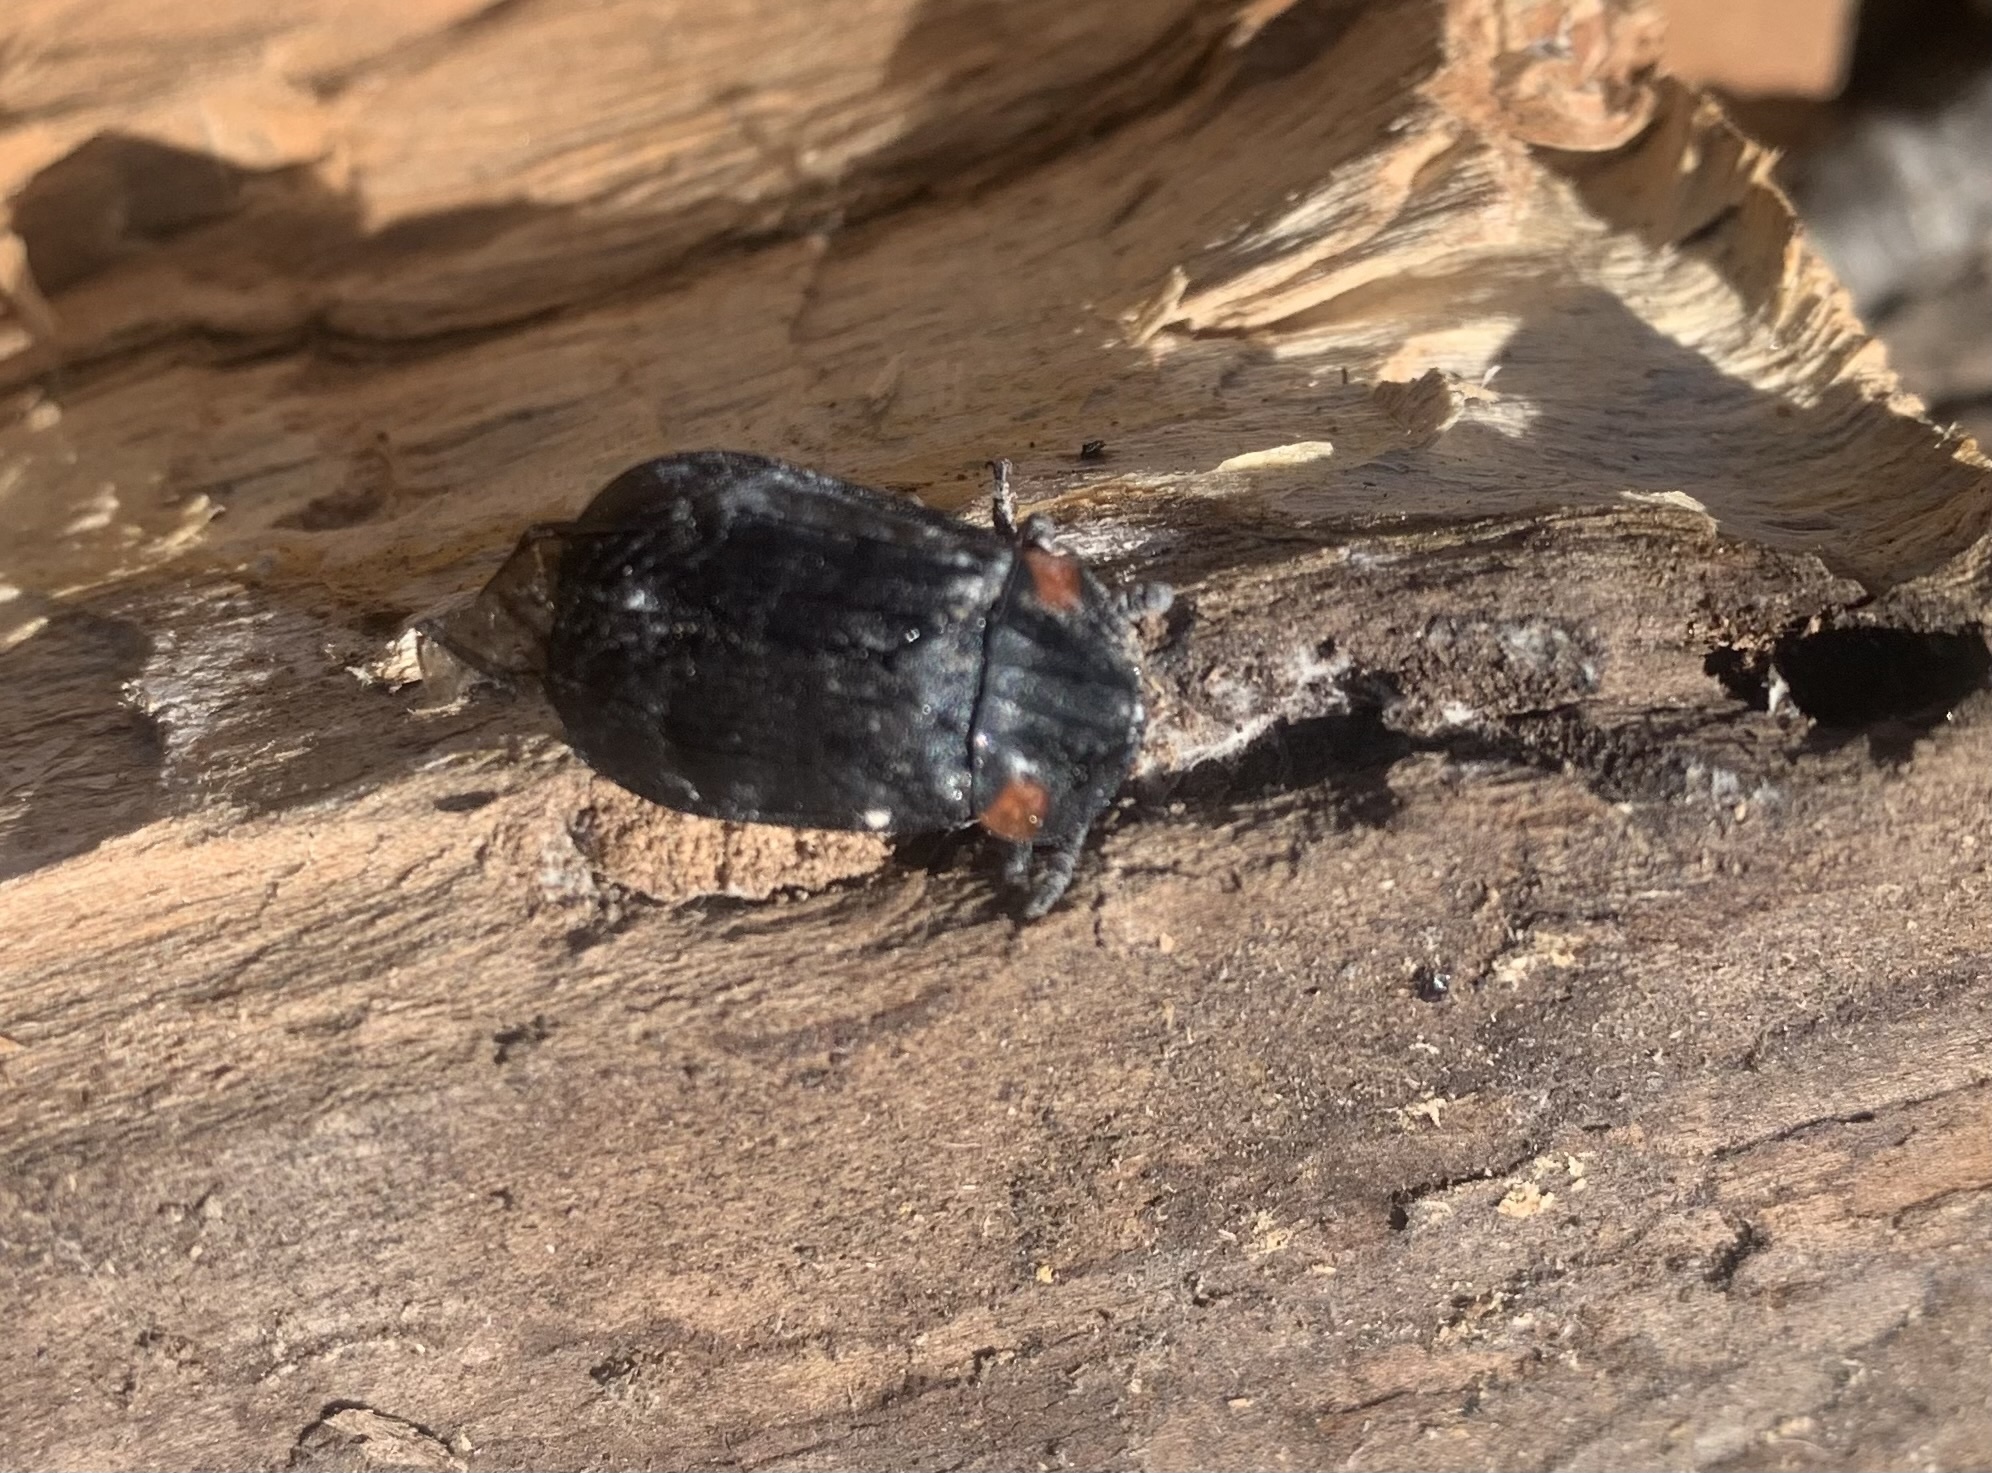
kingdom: Animalia
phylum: Arthropoda
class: Insecta
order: Coleoptera
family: Staphylinidae
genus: Oxelytrum
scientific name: Oxelytrum biguttatum
